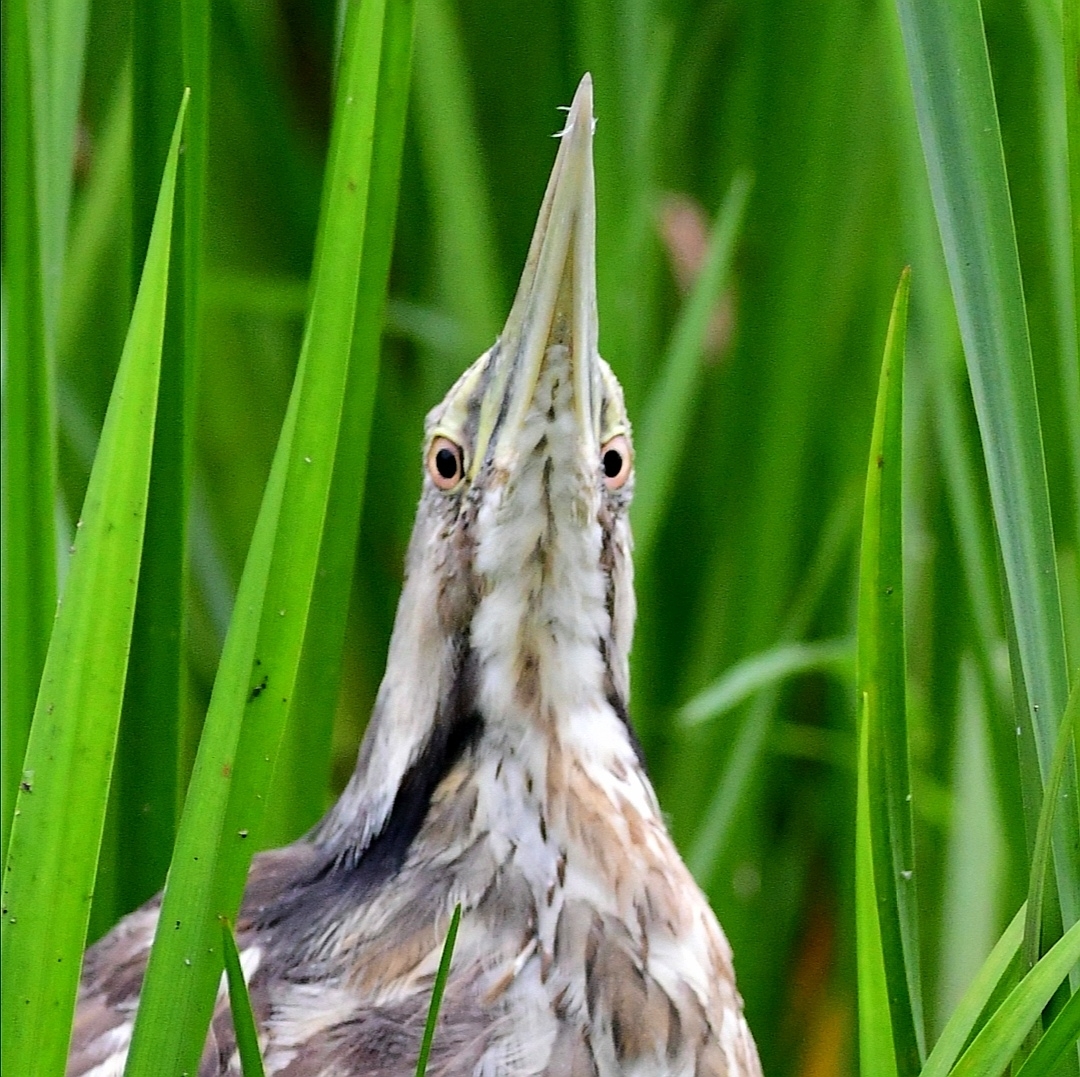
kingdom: Animalia
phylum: Chordata
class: Aves
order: Pelecaniformes
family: Ardeidae
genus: Botaurus
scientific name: Botaurus lentiginosus
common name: American bittern
